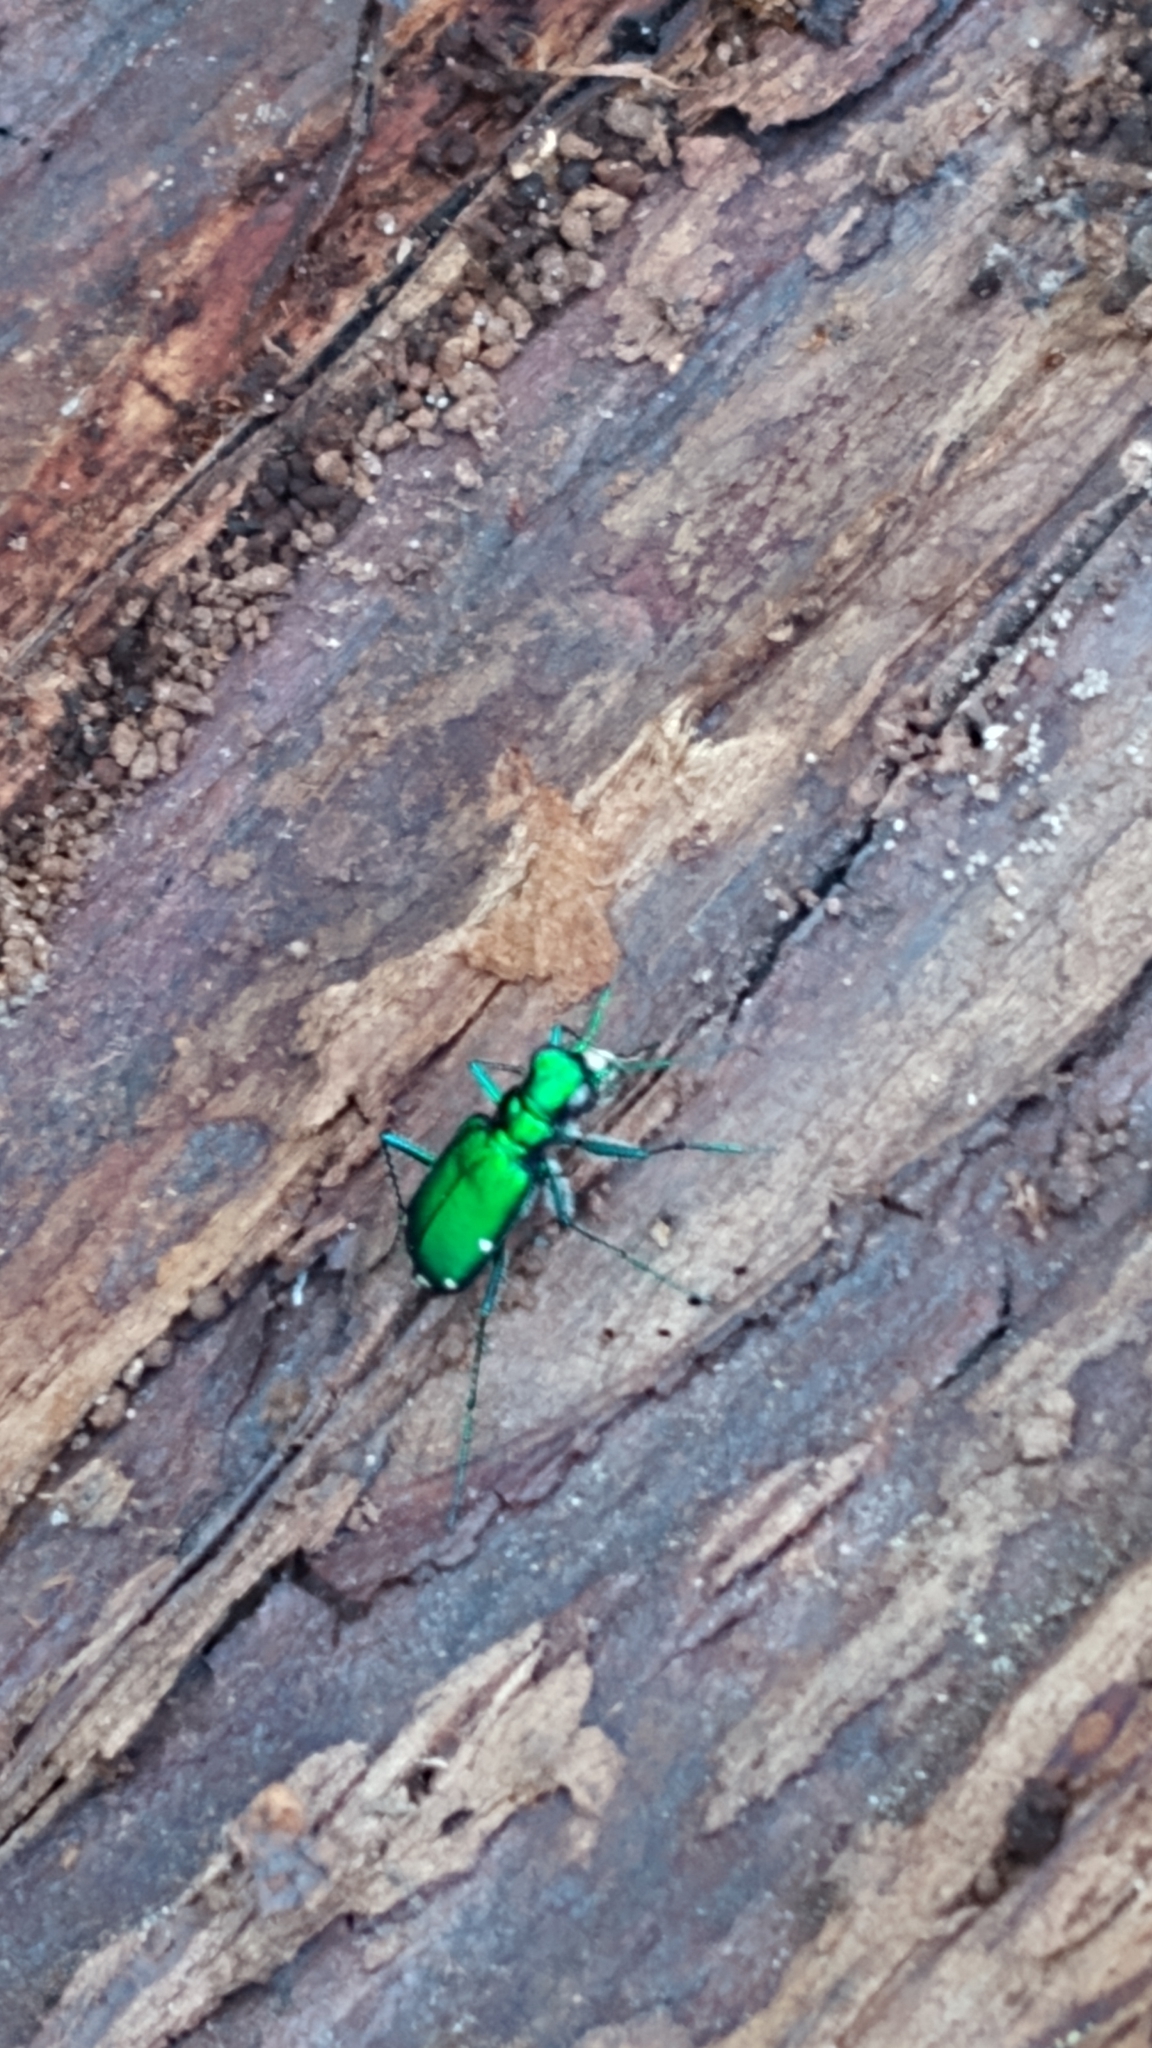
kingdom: Animalia
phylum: Arthropoda
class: Insecta
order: Coleoptera
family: Carabidae
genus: Cicindela
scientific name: Cicindela sexguttata
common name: Six-spotted tiger beetle
